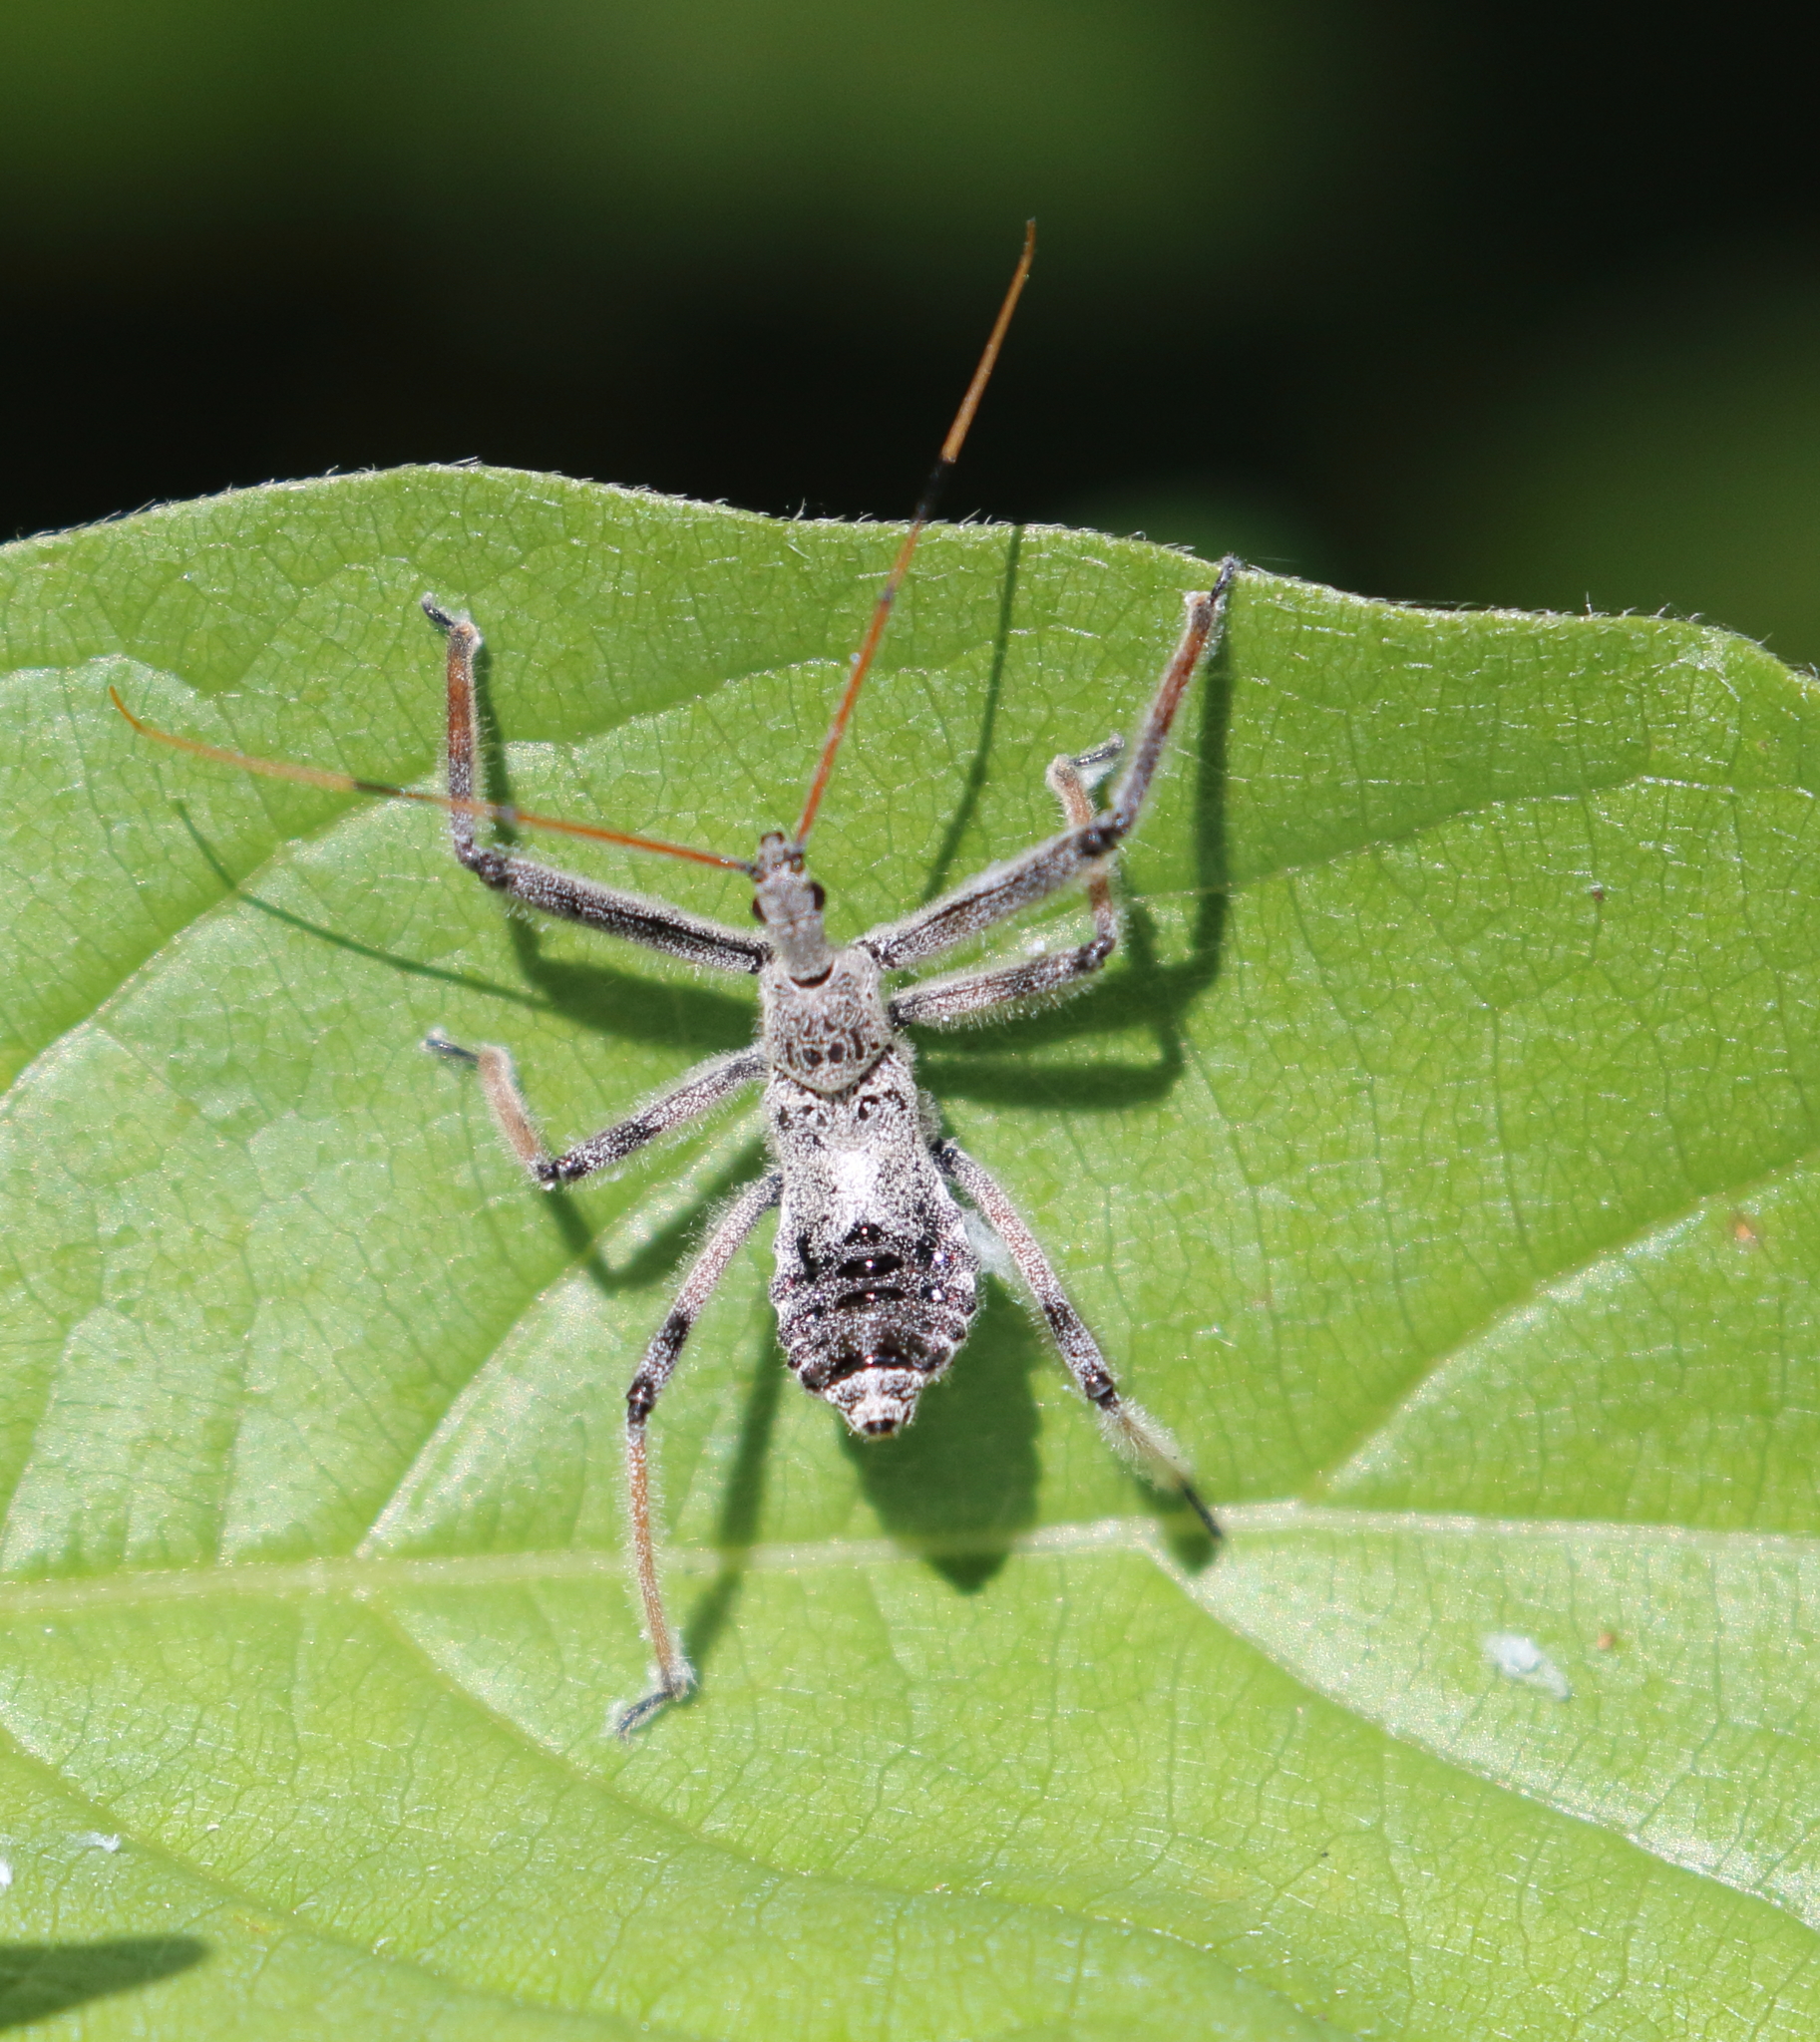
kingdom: Animalia
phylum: Arthropoda
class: Insecta
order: Hemiptera
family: Reduviidae
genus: Arilus
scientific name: Arilus cristatus
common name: North american wheel bug
